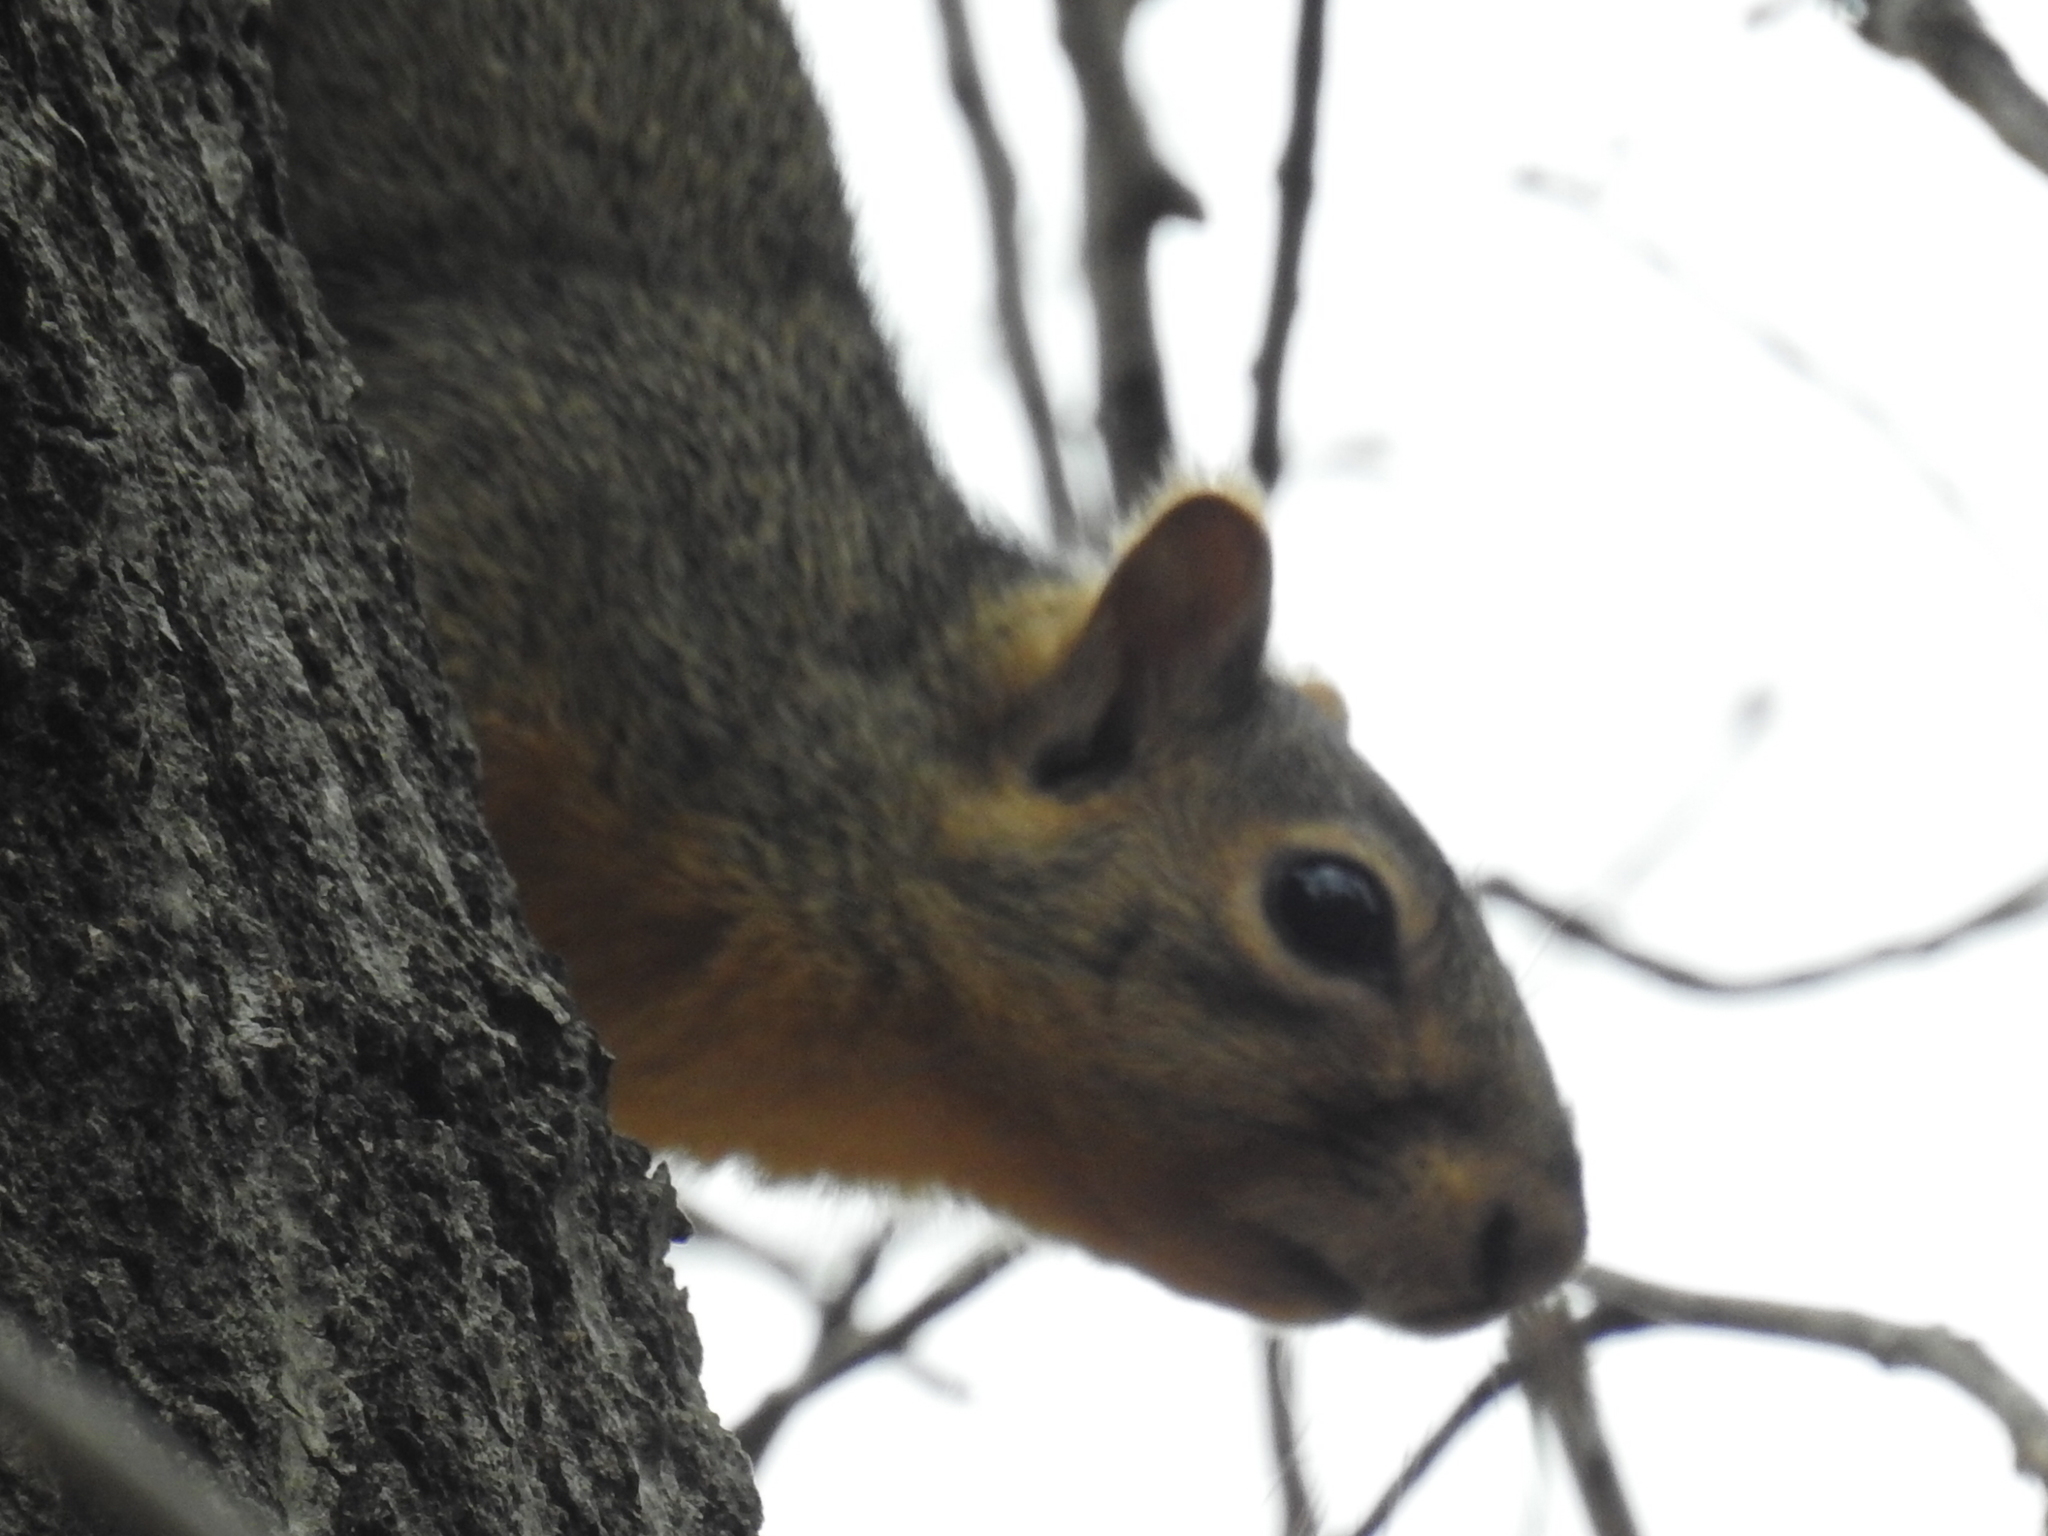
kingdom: Animalia
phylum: Chordata
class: Mammalia
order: Rodentia
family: Sciuridae
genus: Sciurus
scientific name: Sciurus niger
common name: Fox squirrel
